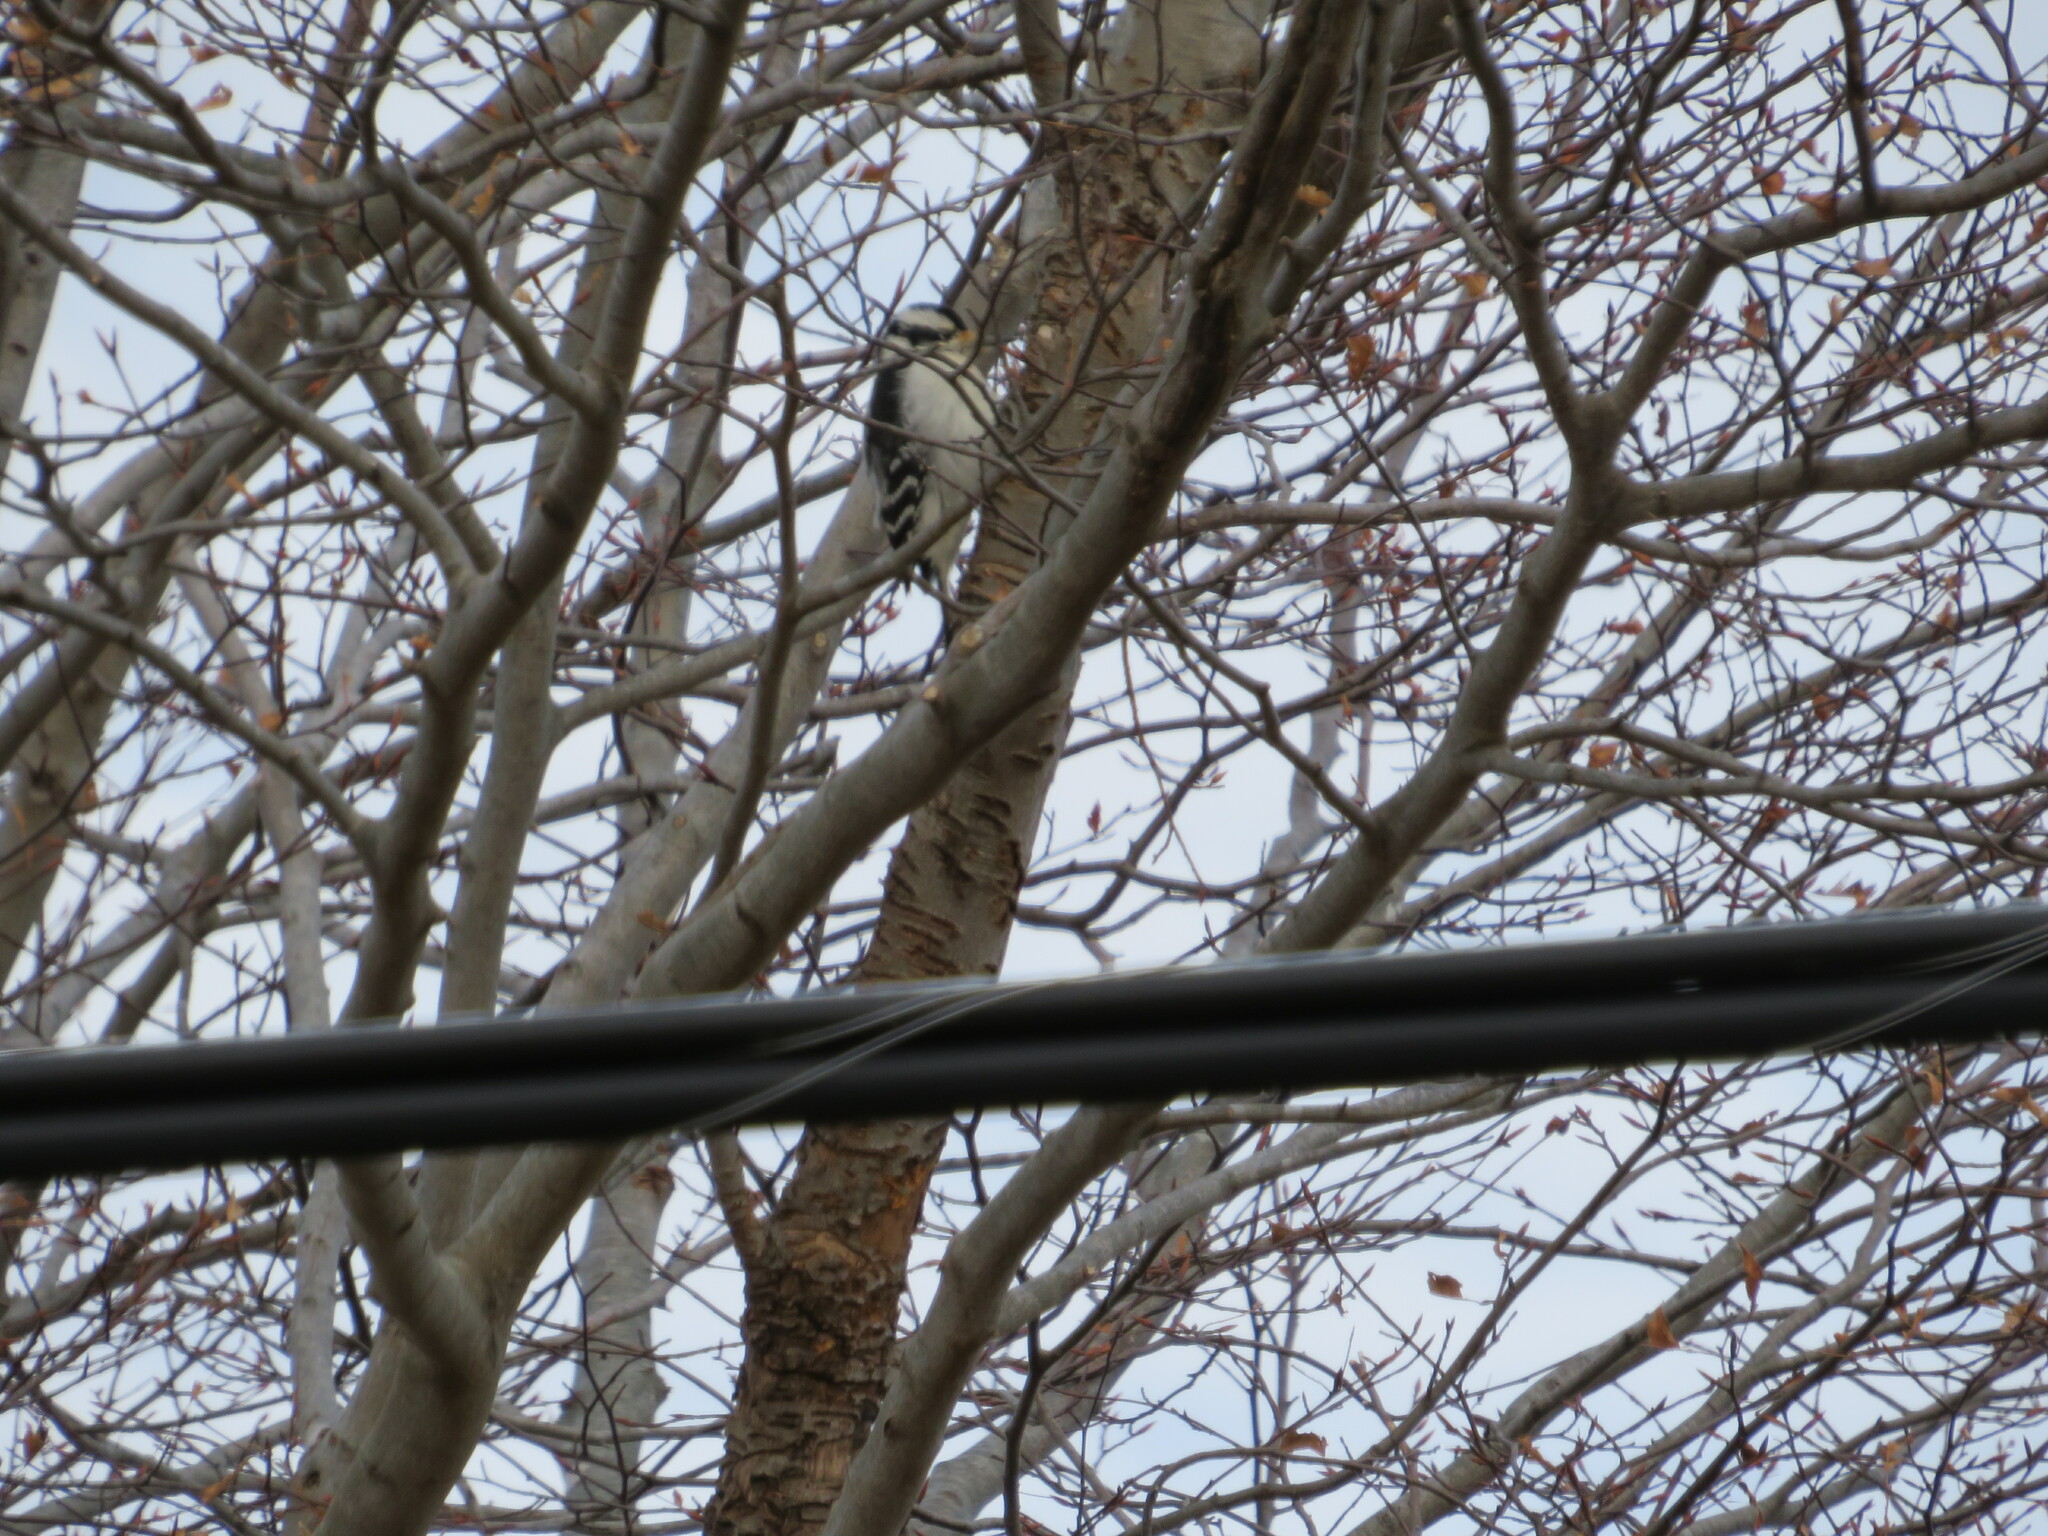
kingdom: Animalia
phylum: Chordata
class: Aves
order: Piciformes
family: Picidae
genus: Leuconotopicus
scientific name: Leuconotopicus villosus
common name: Hairy woodpecker
